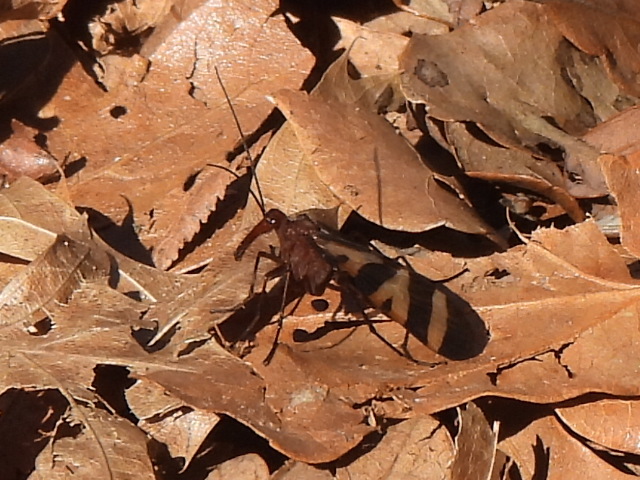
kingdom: Animalia
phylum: Arthropoda
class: Insecta
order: Mecoptera
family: Panorpidae
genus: Panorpa
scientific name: Panorpa nuptialis
